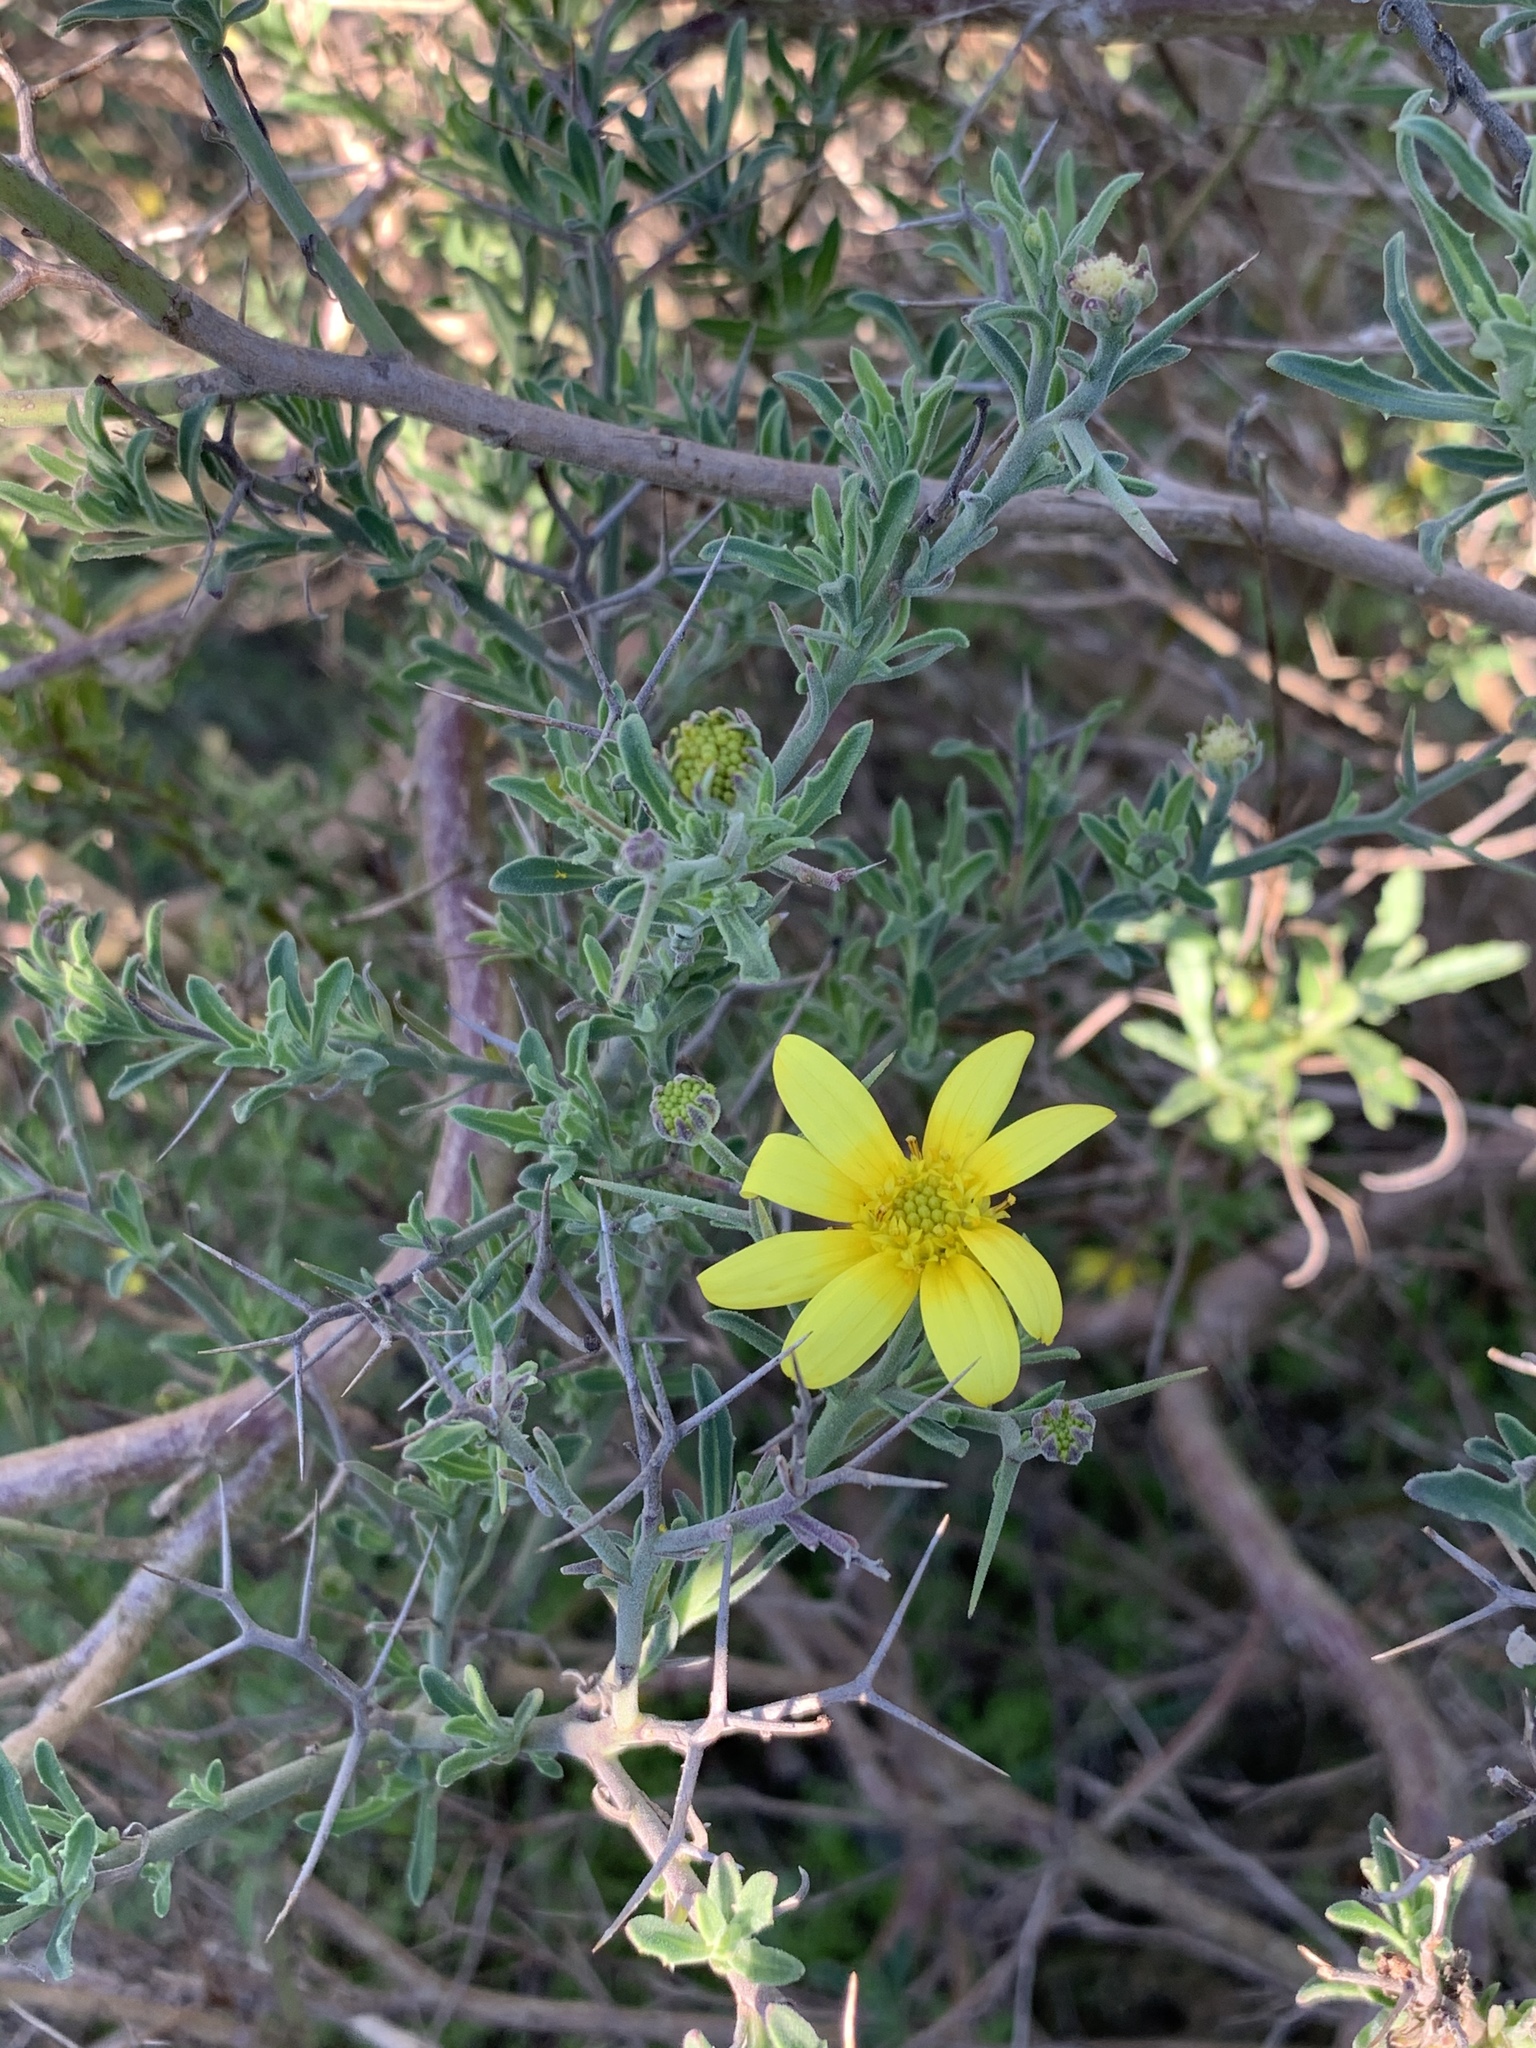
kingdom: Plantae
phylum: Tracheophyta
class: Magnoliopsida
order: Asterales
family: Asteraceae
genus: Osteospermum
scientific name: Osteospermum spinosum
